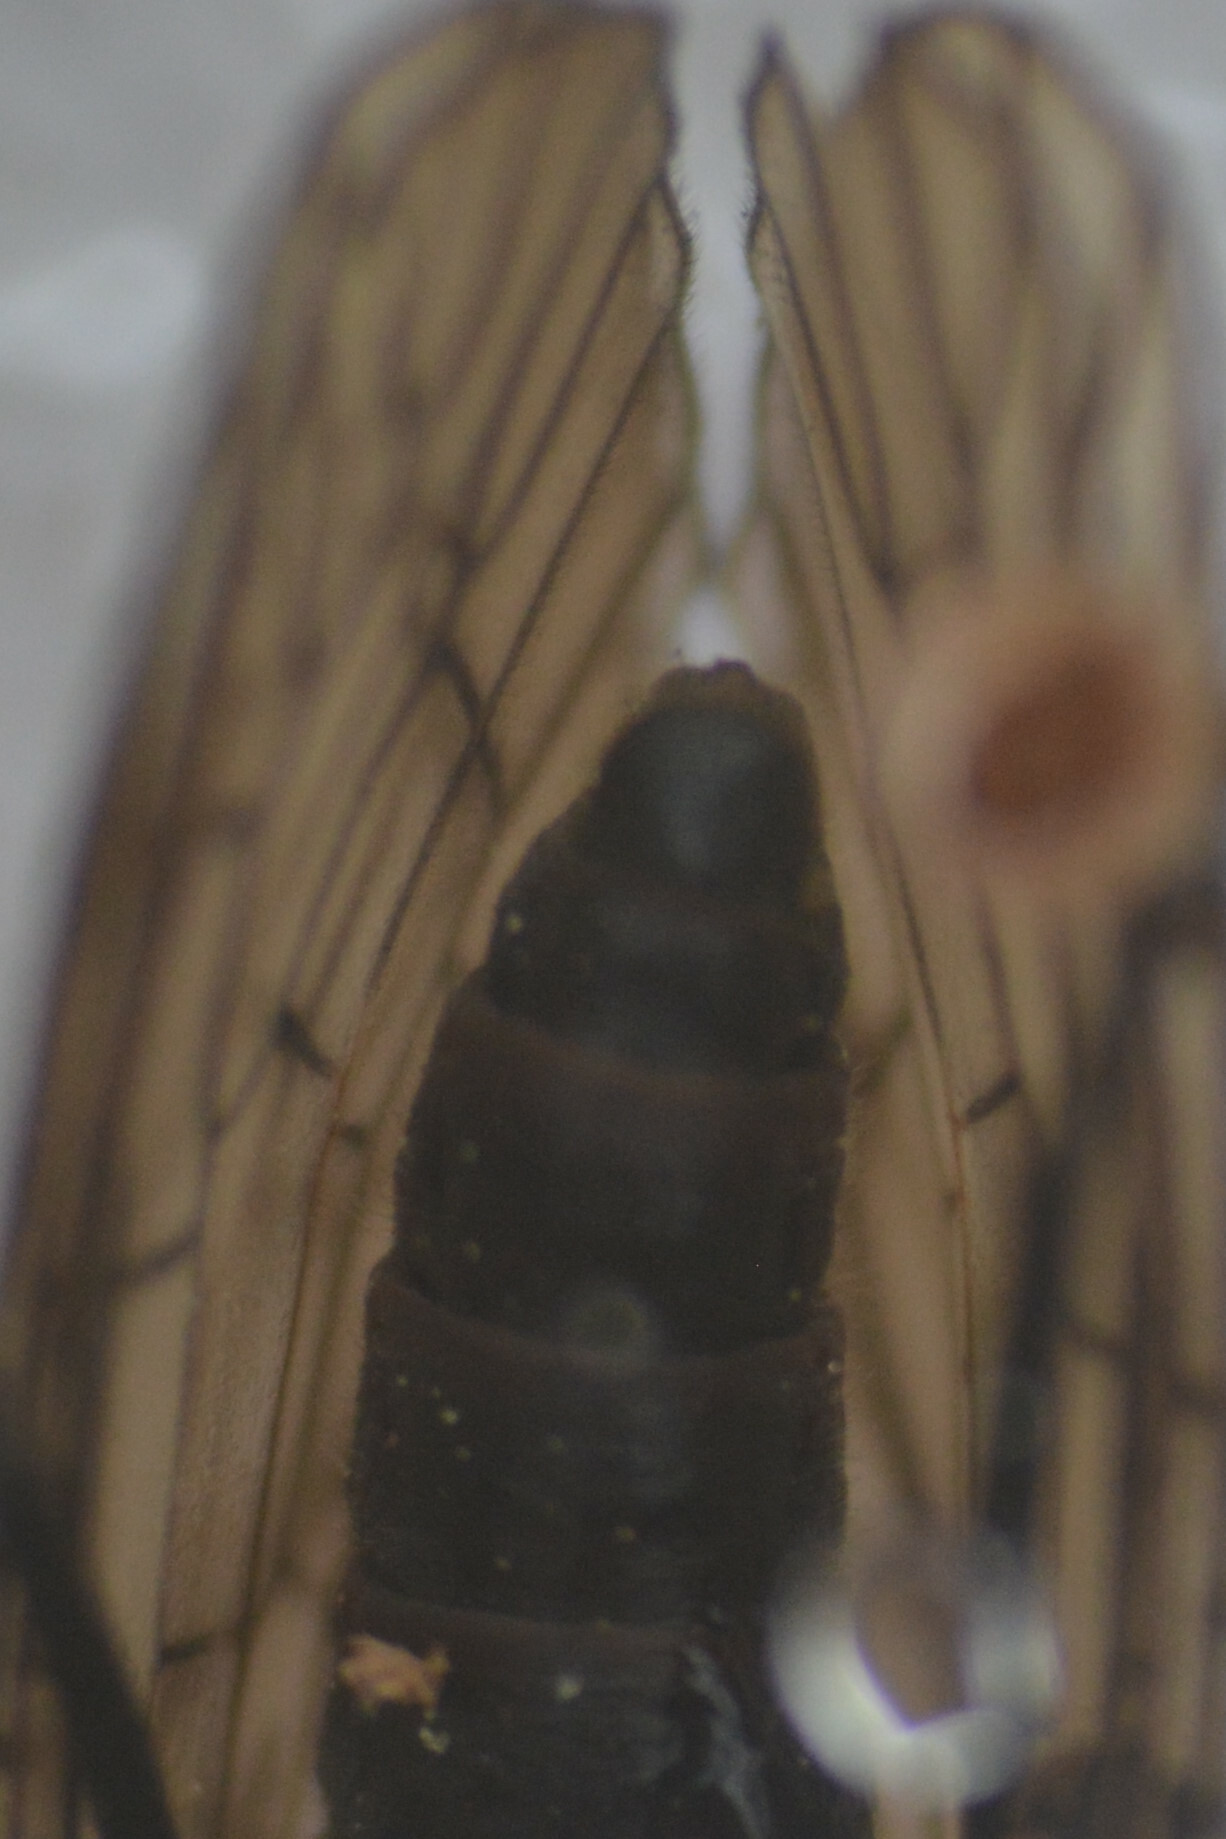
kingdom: Animalia
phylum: Arthropoda
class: Insecta
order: Megaloptera
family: Sialidae
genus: Sialis
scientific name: Sialis lutaria
